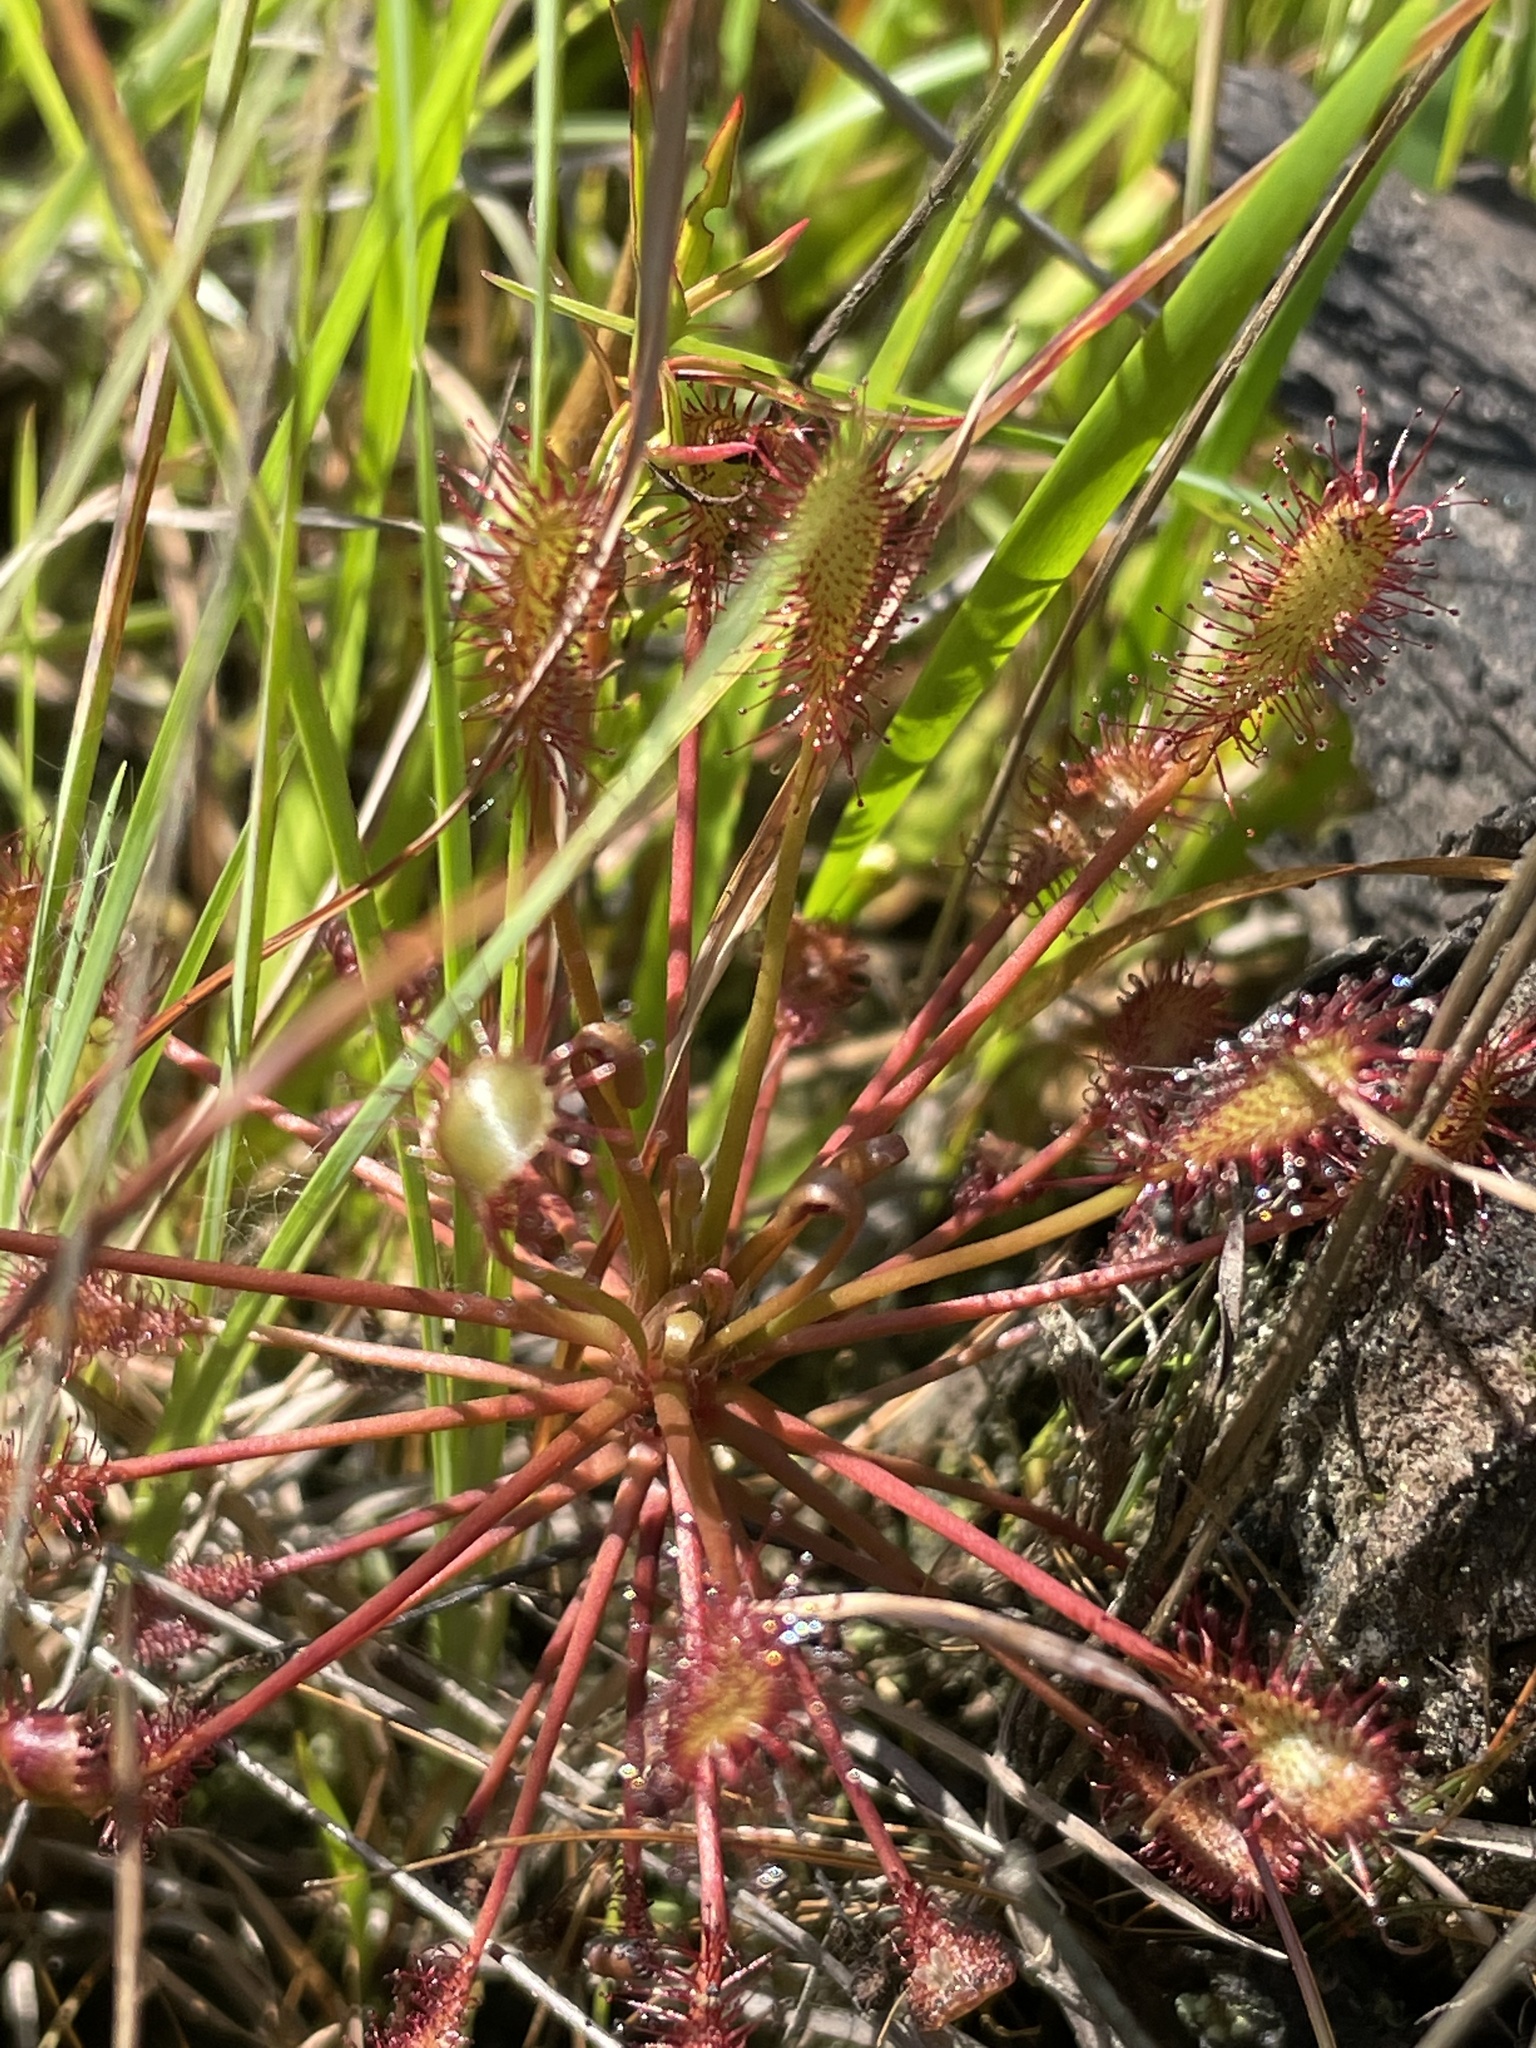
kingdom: Plantae
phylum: Tracheophyta
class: Magnoliopsida
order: Caryophyllales
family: Droseraceae
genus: Drosera
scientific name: Drosera intermedia
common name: Oblong-leaved sundew
